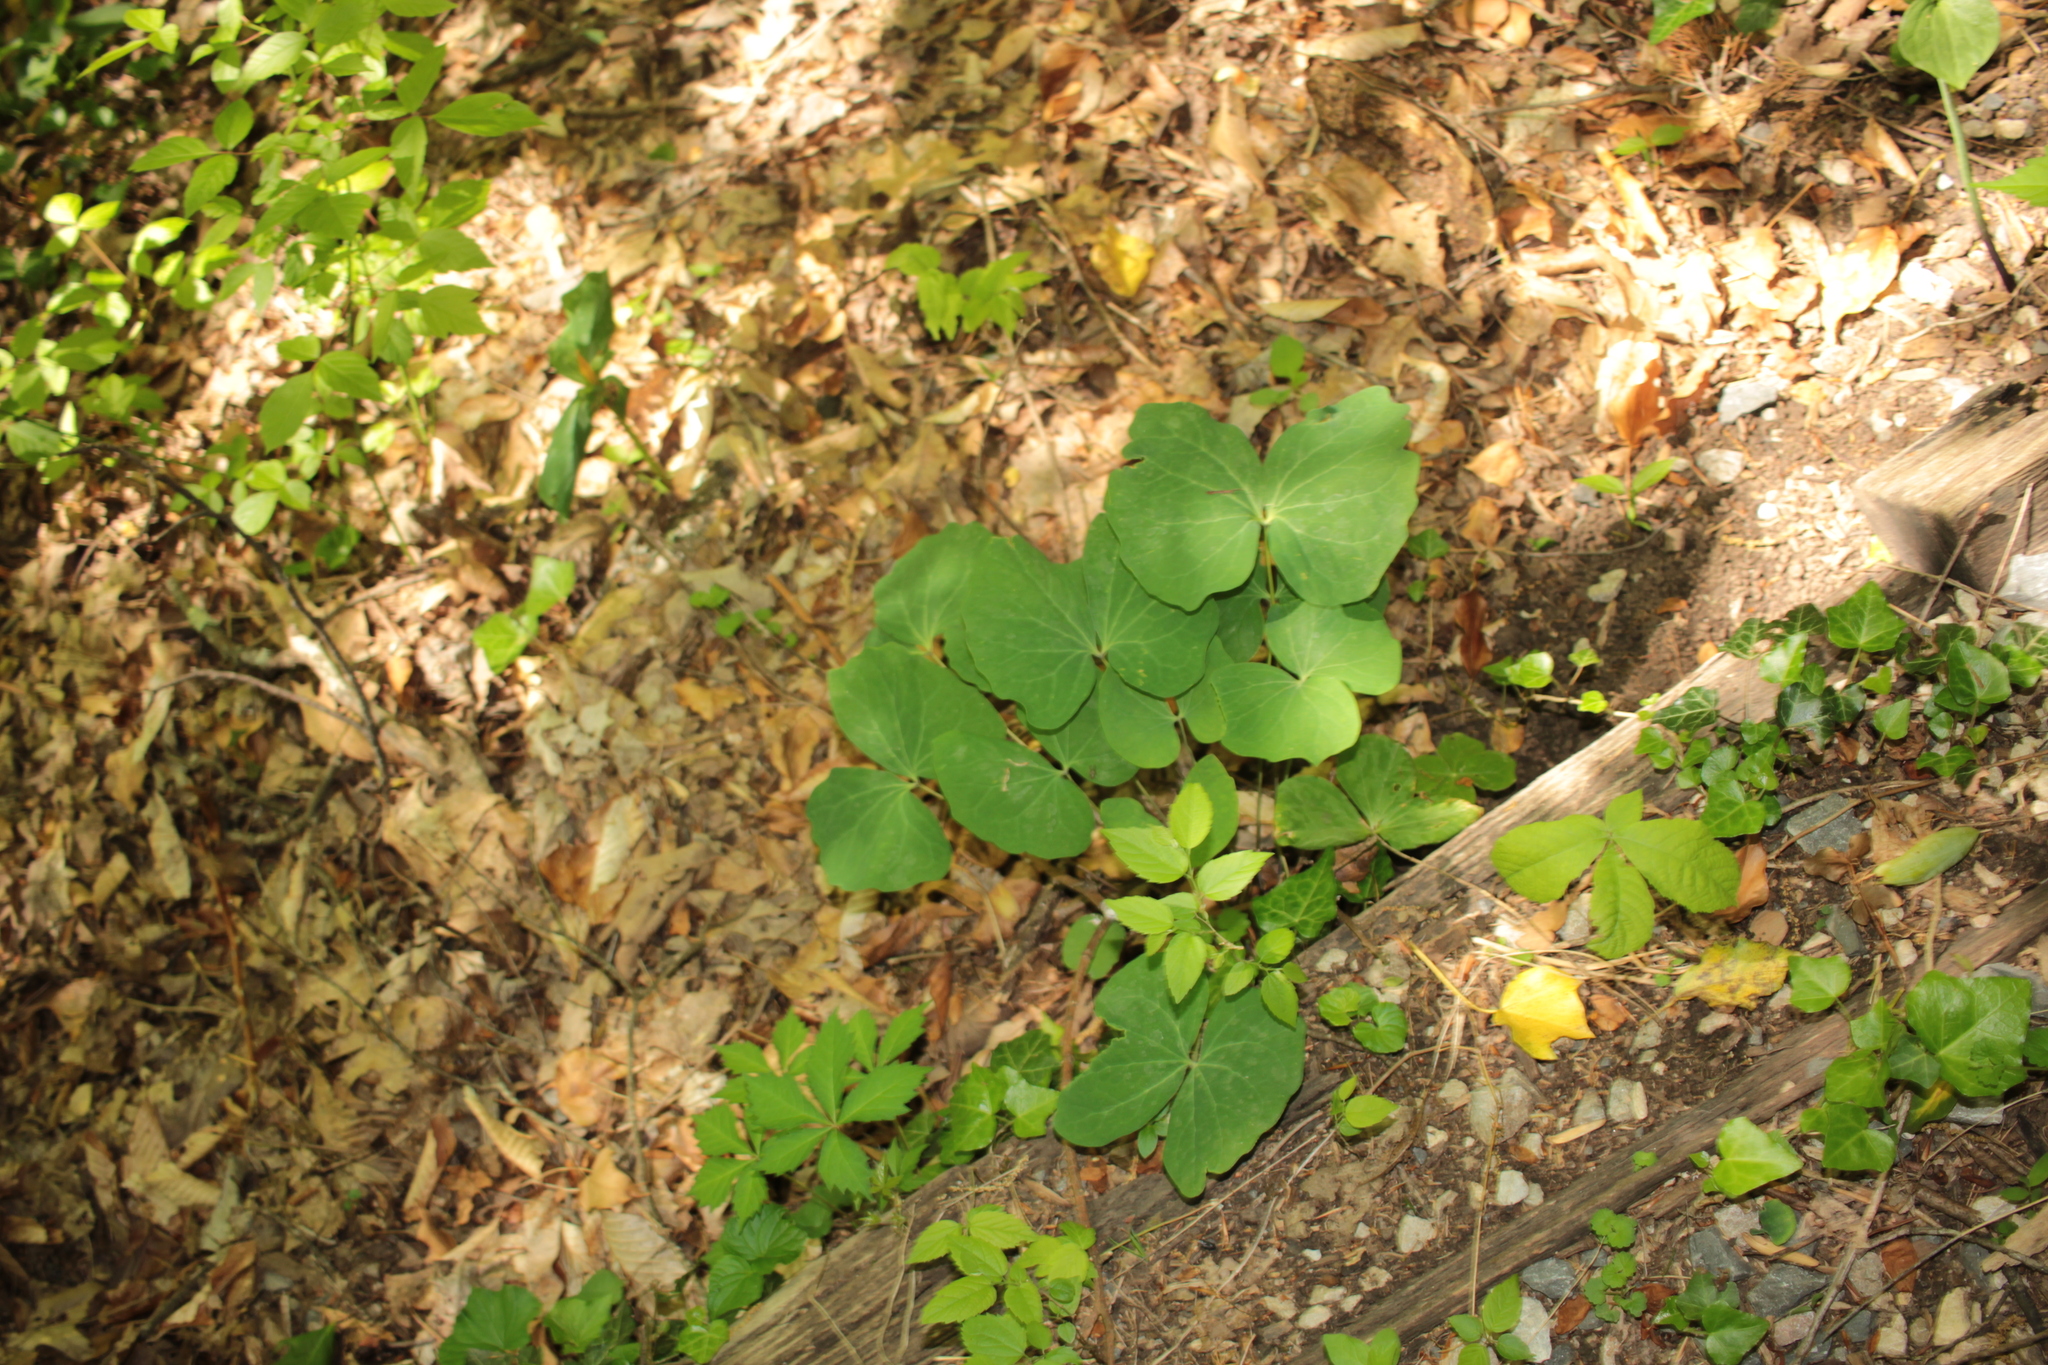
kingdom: Plantae
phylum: Tracheophyta
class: Magnoliopsida
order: Ranunculales
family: Berberidaceae
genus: Jeffersonia
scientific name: Jeffersonia diphylla
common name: Rheumatism-root
